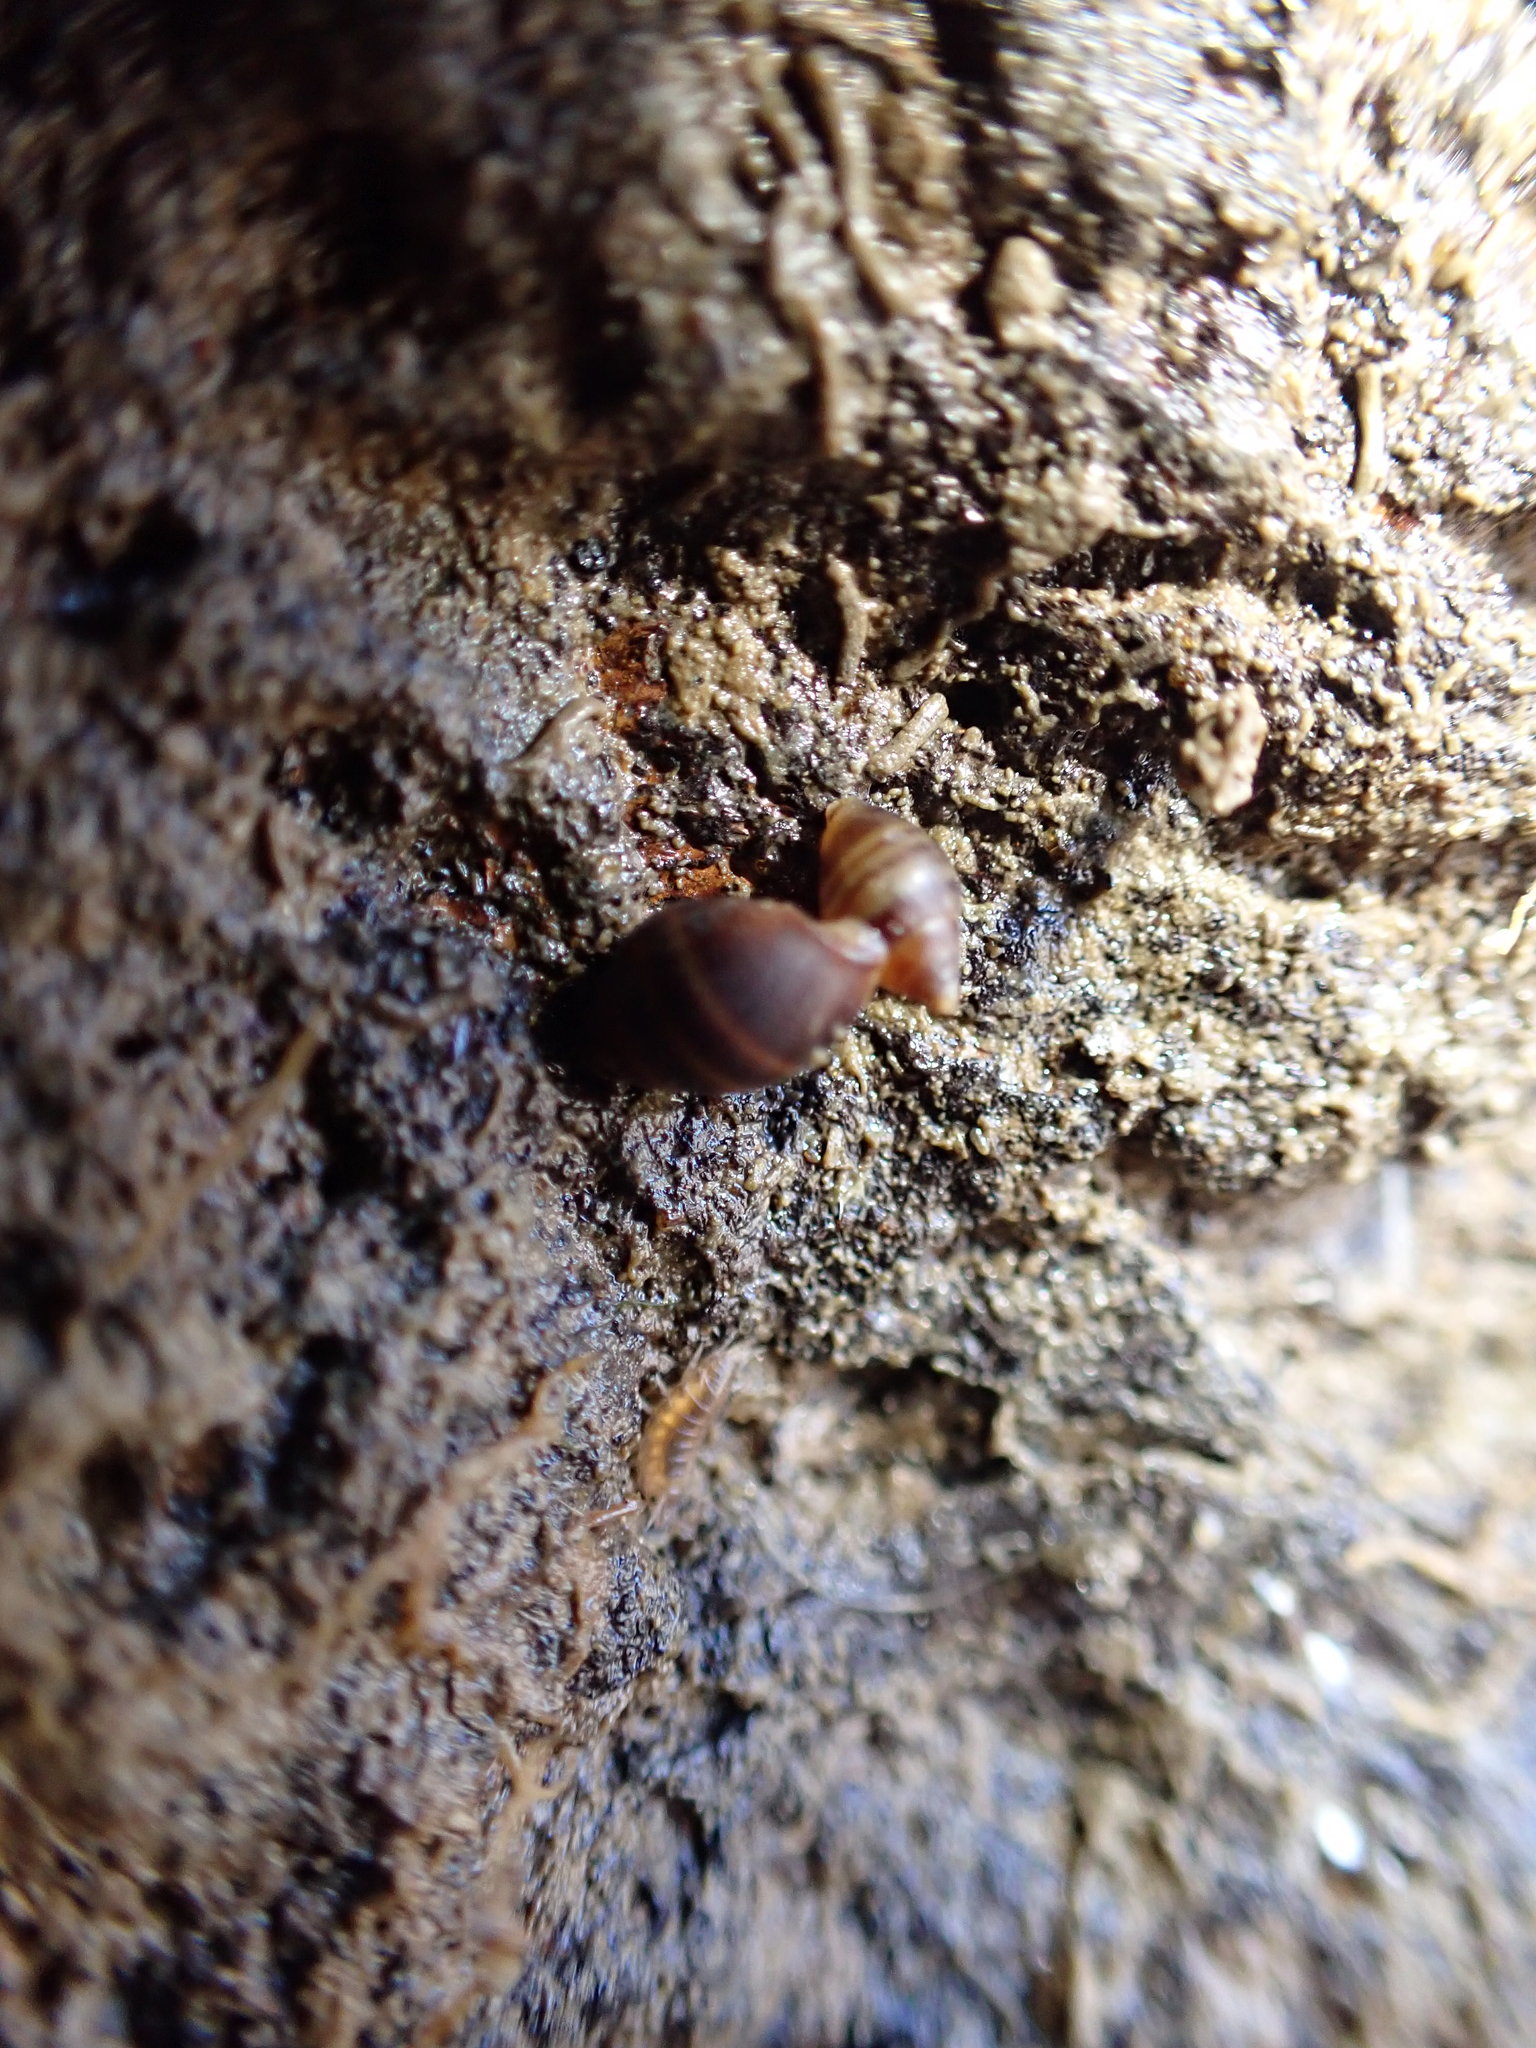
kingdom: Animalia
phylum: Mollusca
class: Gastropoda
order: Ellobiida
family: Ellobiidae
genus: Pleuroloba
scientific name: Pleuroloba costellaris
